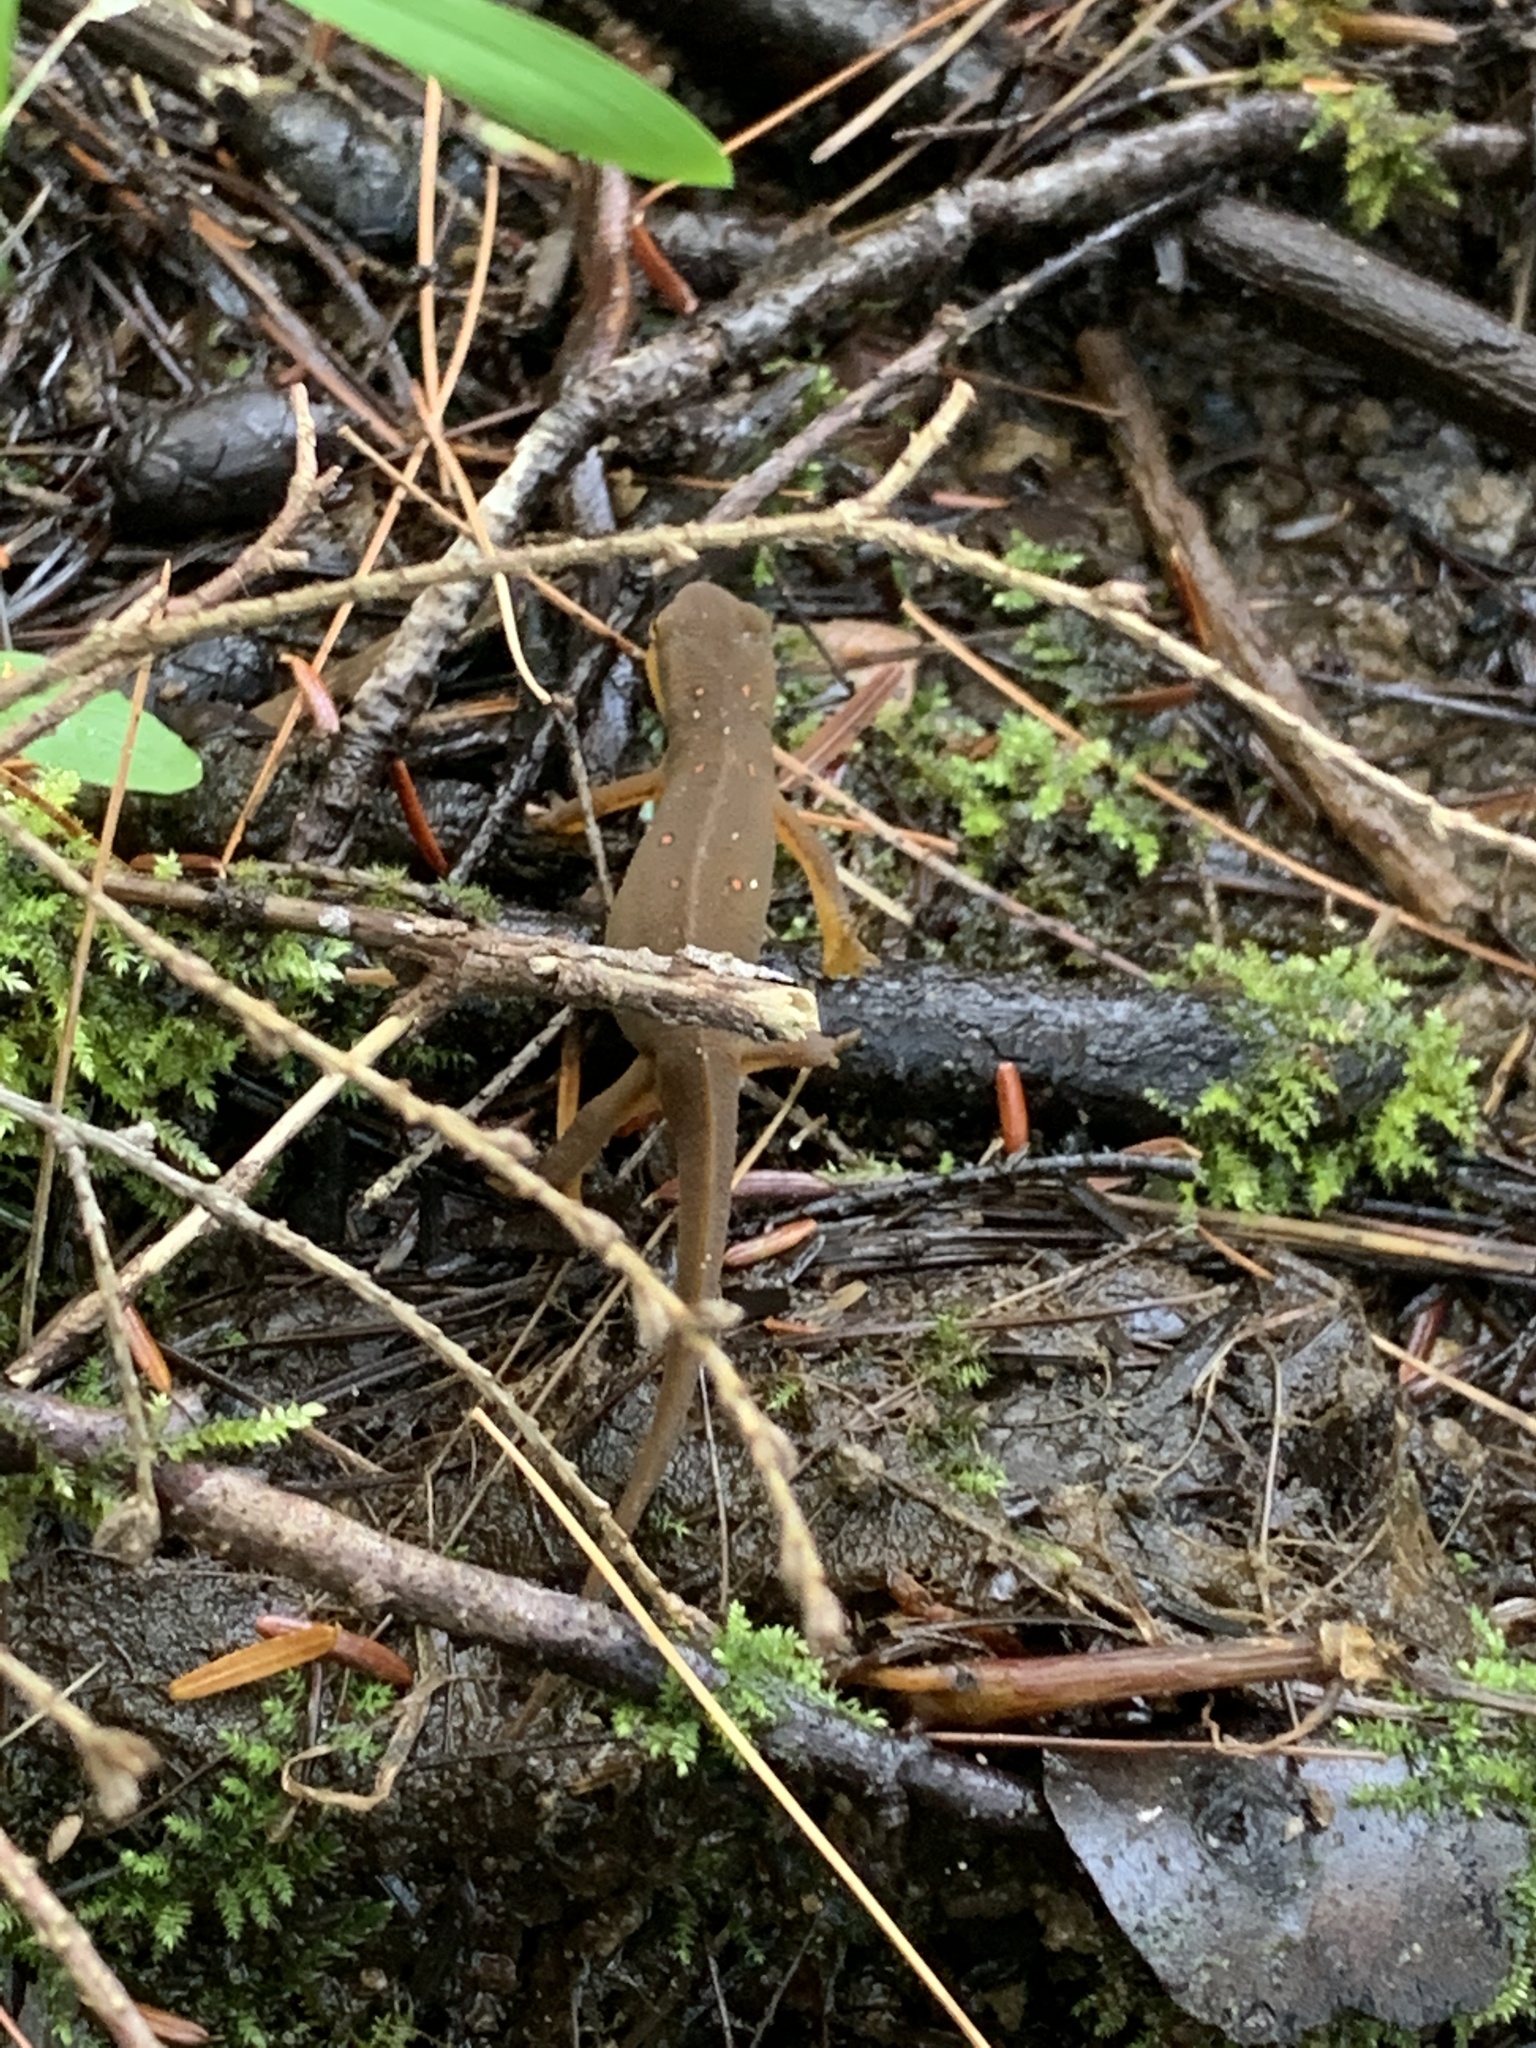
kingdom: Animalia
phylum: Chordata
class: Amphibia
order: Caudata
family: Salamandridae
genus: Notophthalmus
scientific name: Notophthalmus viridescens
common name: Eastern newt
